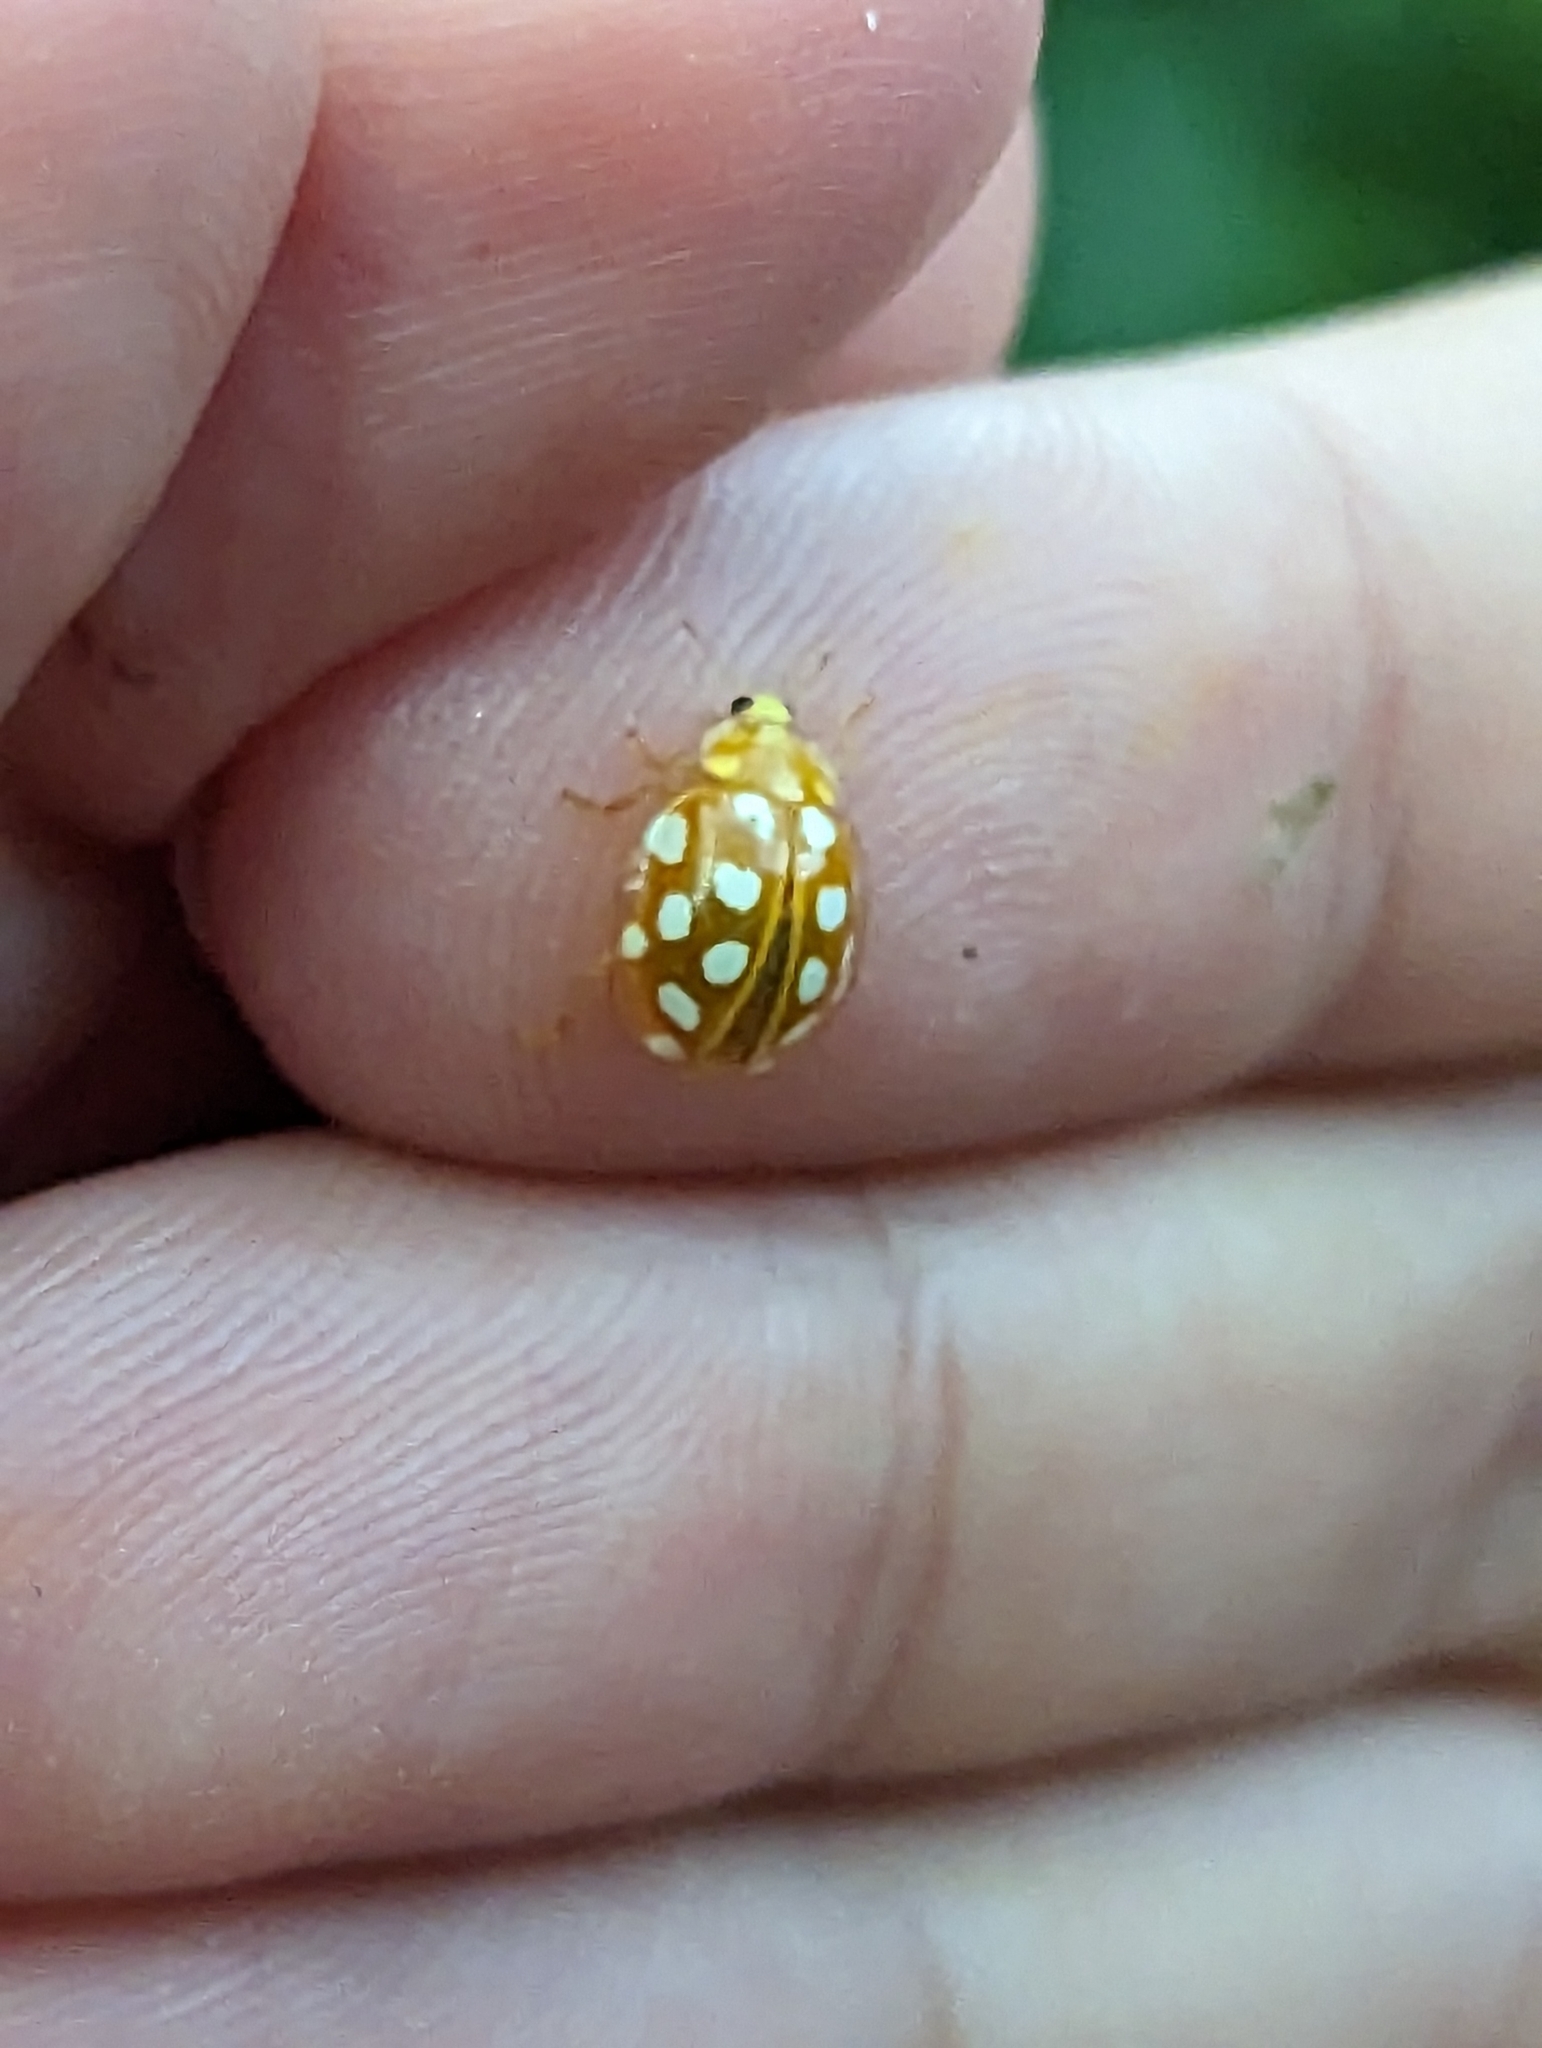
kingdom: Animalia
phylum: Arthropoda
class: Insecta
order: Coleoptera
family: Coccinellidae
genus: Halyzia
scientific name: Halyzia sedecimguttata
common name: Orange ladybird
